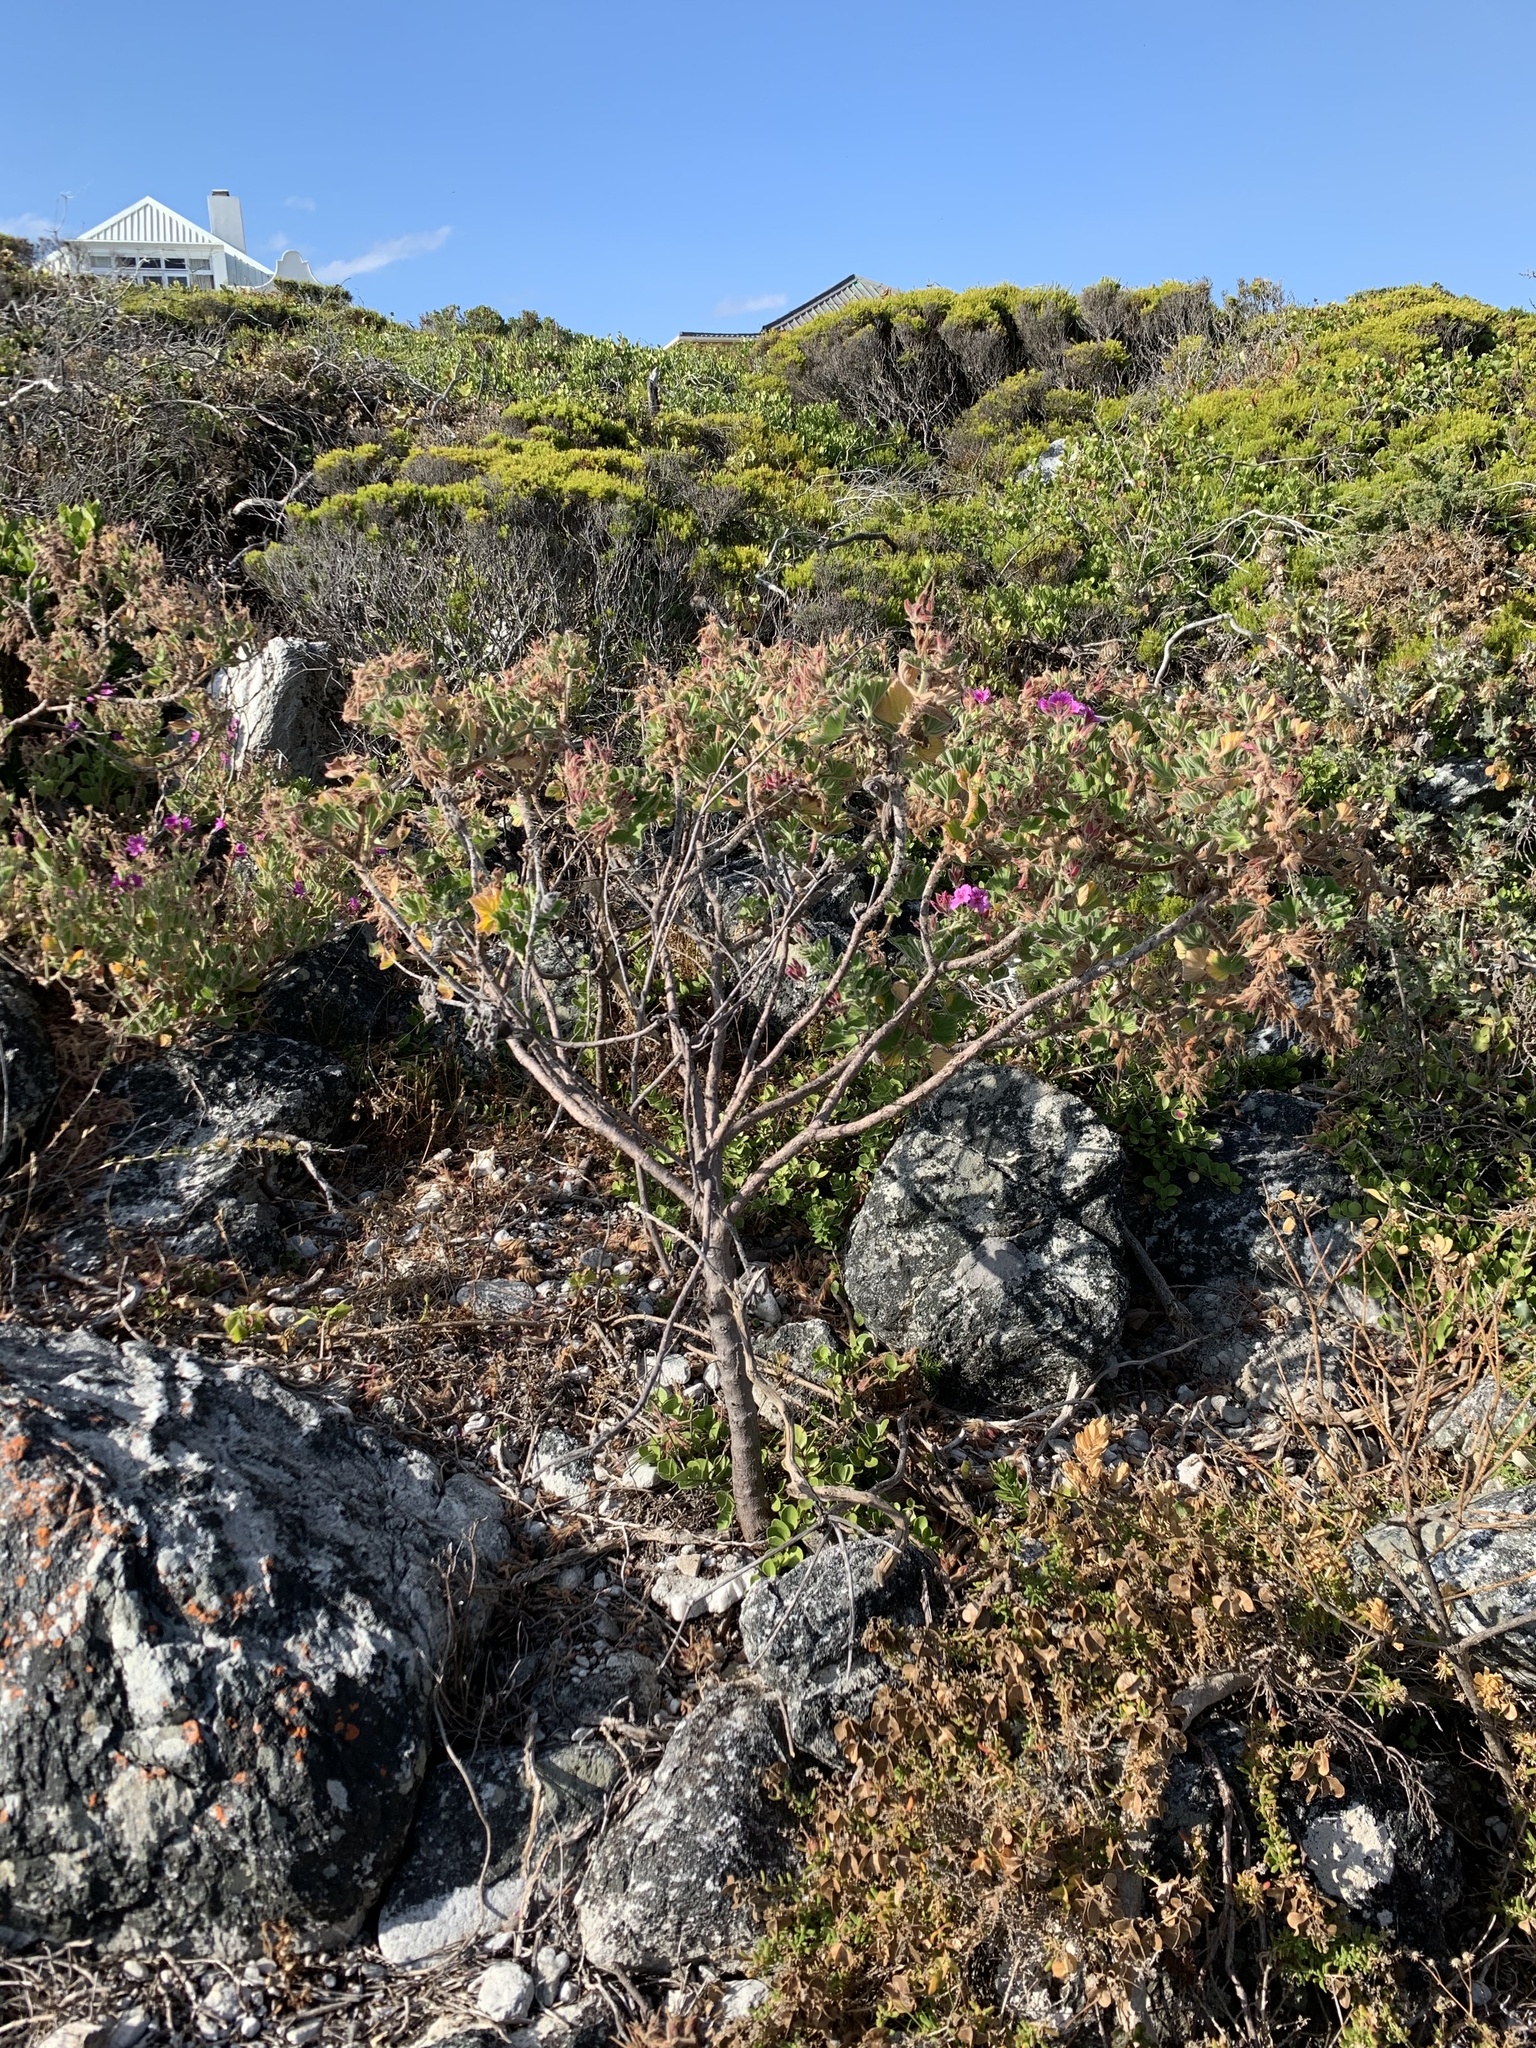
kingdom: Plantae
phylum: Tracheophyta
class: Magnoliopsida
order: Geraniales
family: Geraniaceae
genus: Pelargonium
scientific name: Pelargonium cucullatum
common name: Tree pelargonium
